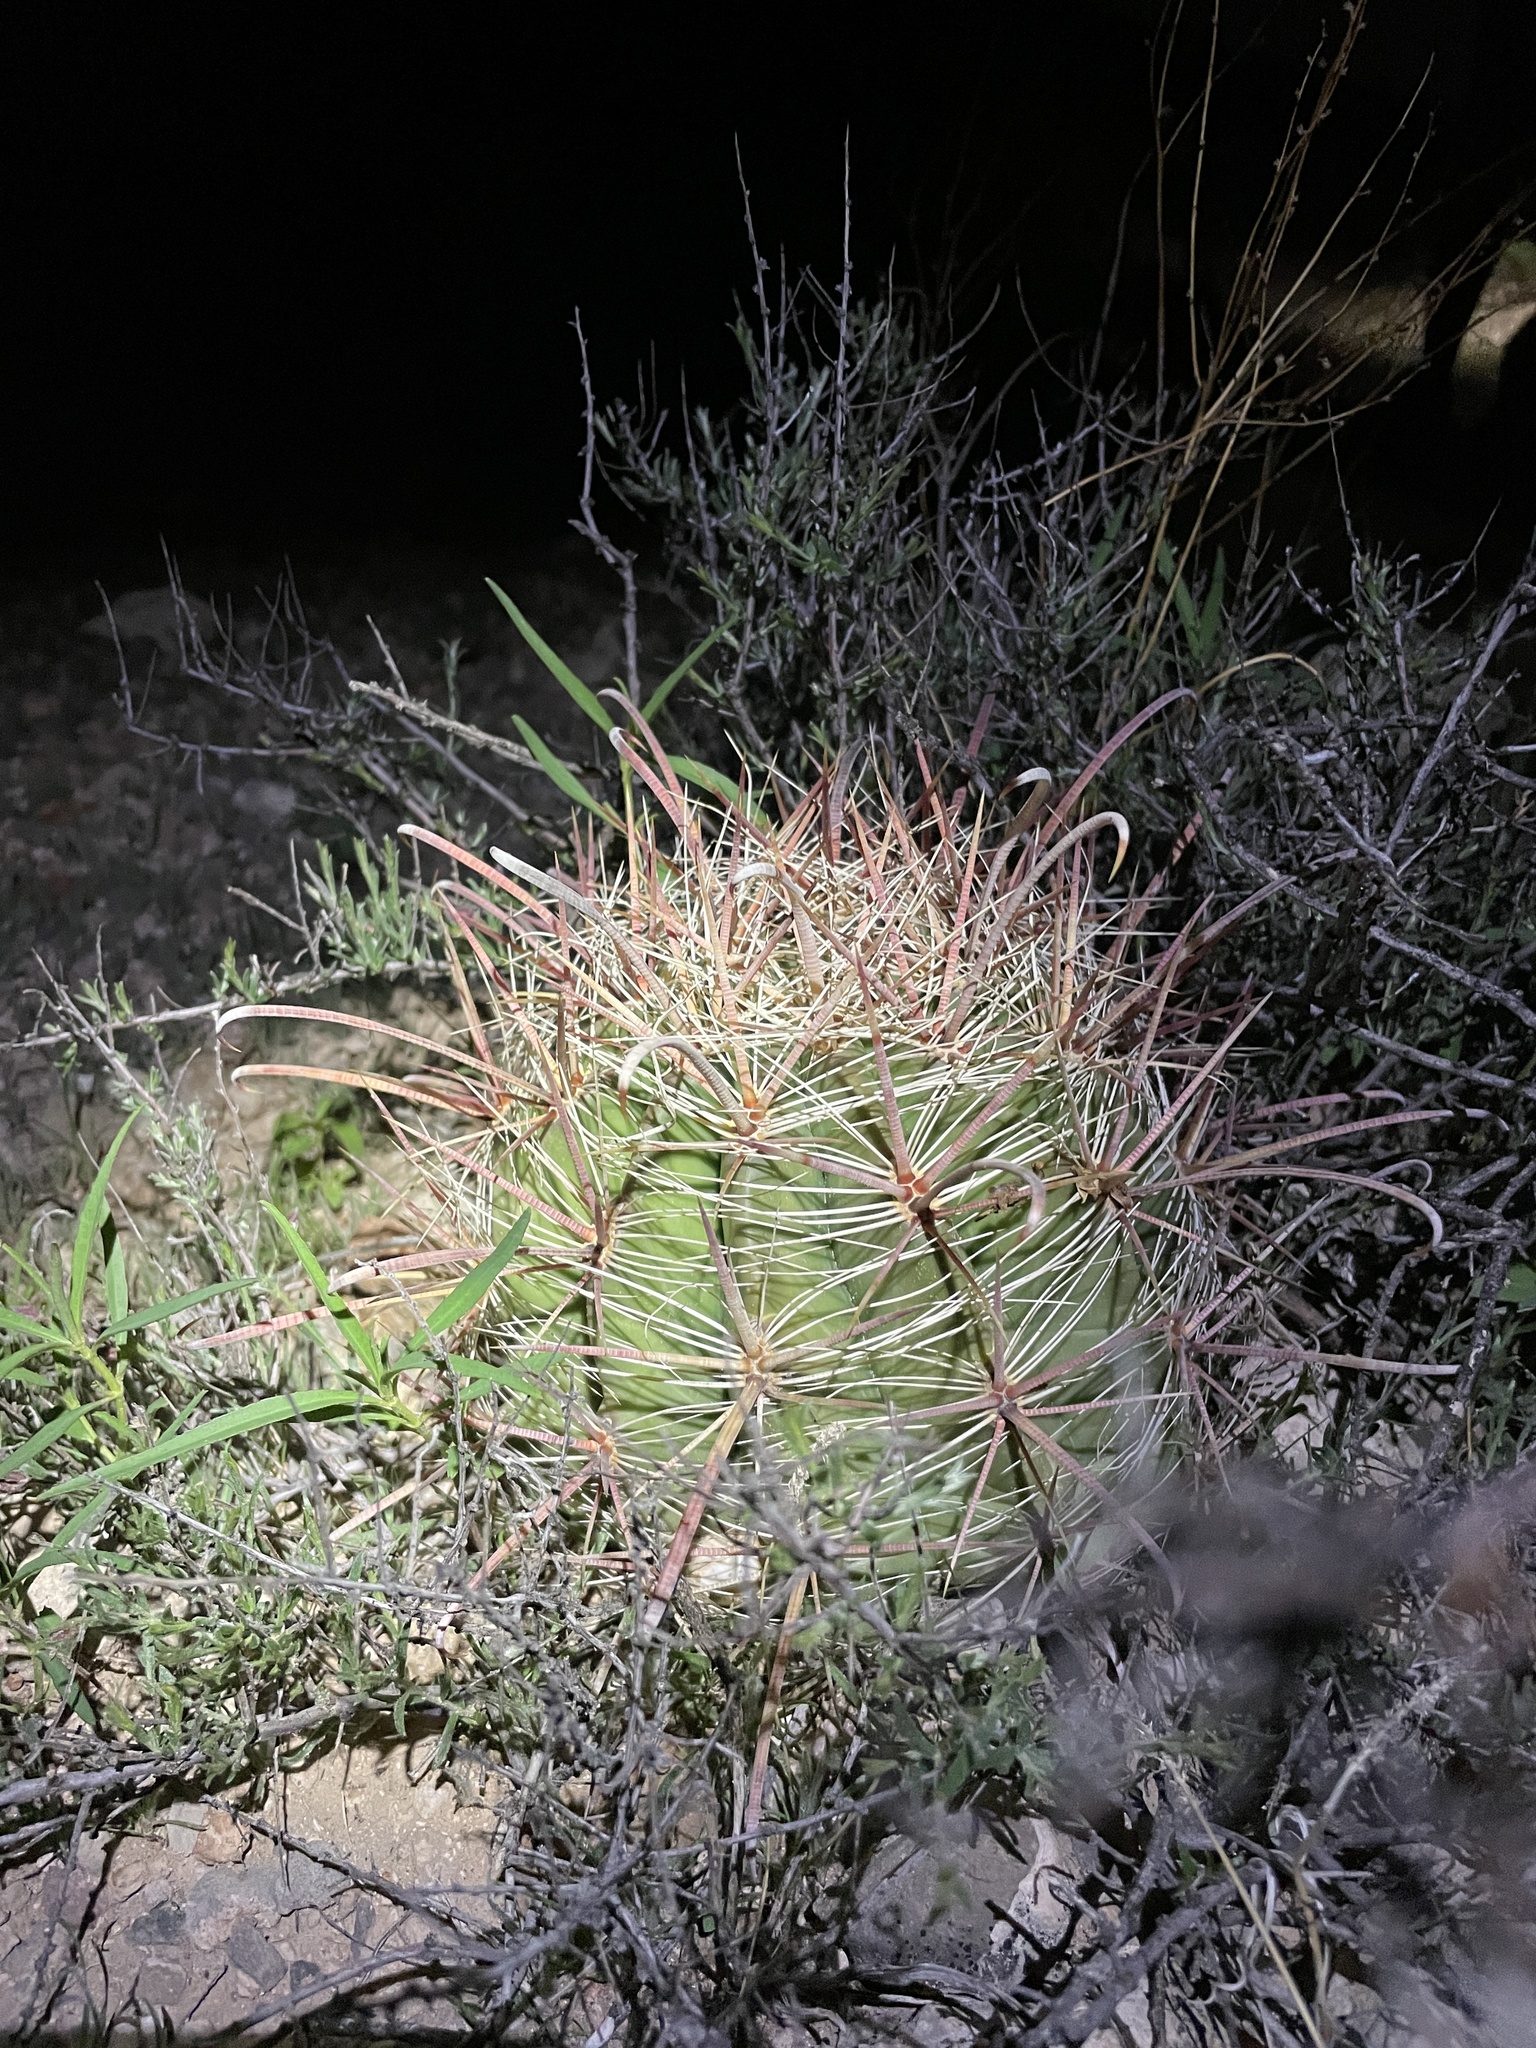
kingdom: Plantae
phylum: Tracheophyta
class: Magnoliopsida
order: Caryophyllales
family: Cactaceae
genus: Ferocactus
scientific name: Ferocactus wislizeni
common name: Candy barrel cactus
